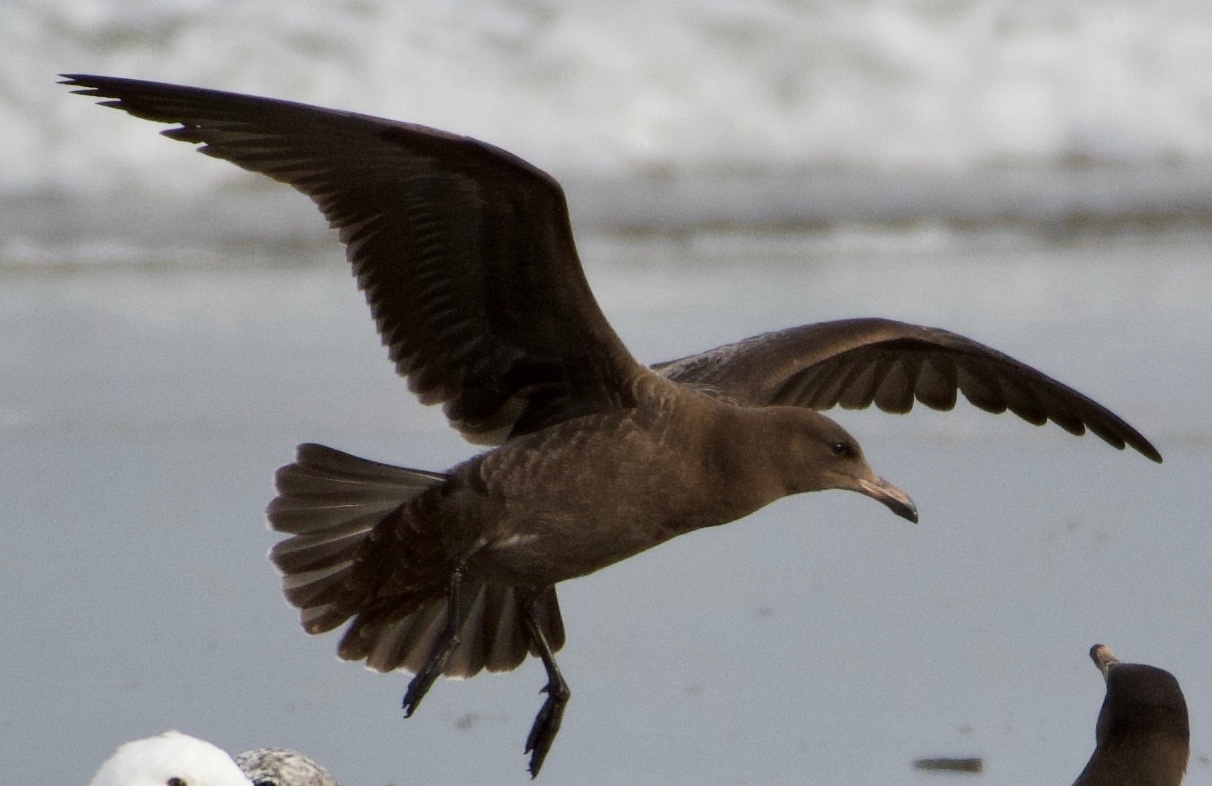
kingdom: Animalia
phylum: Chordata
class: Aves
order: Charadriiformes
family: Laridae
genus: Larus
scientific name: Larus heermanni
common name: Heermann's gull
